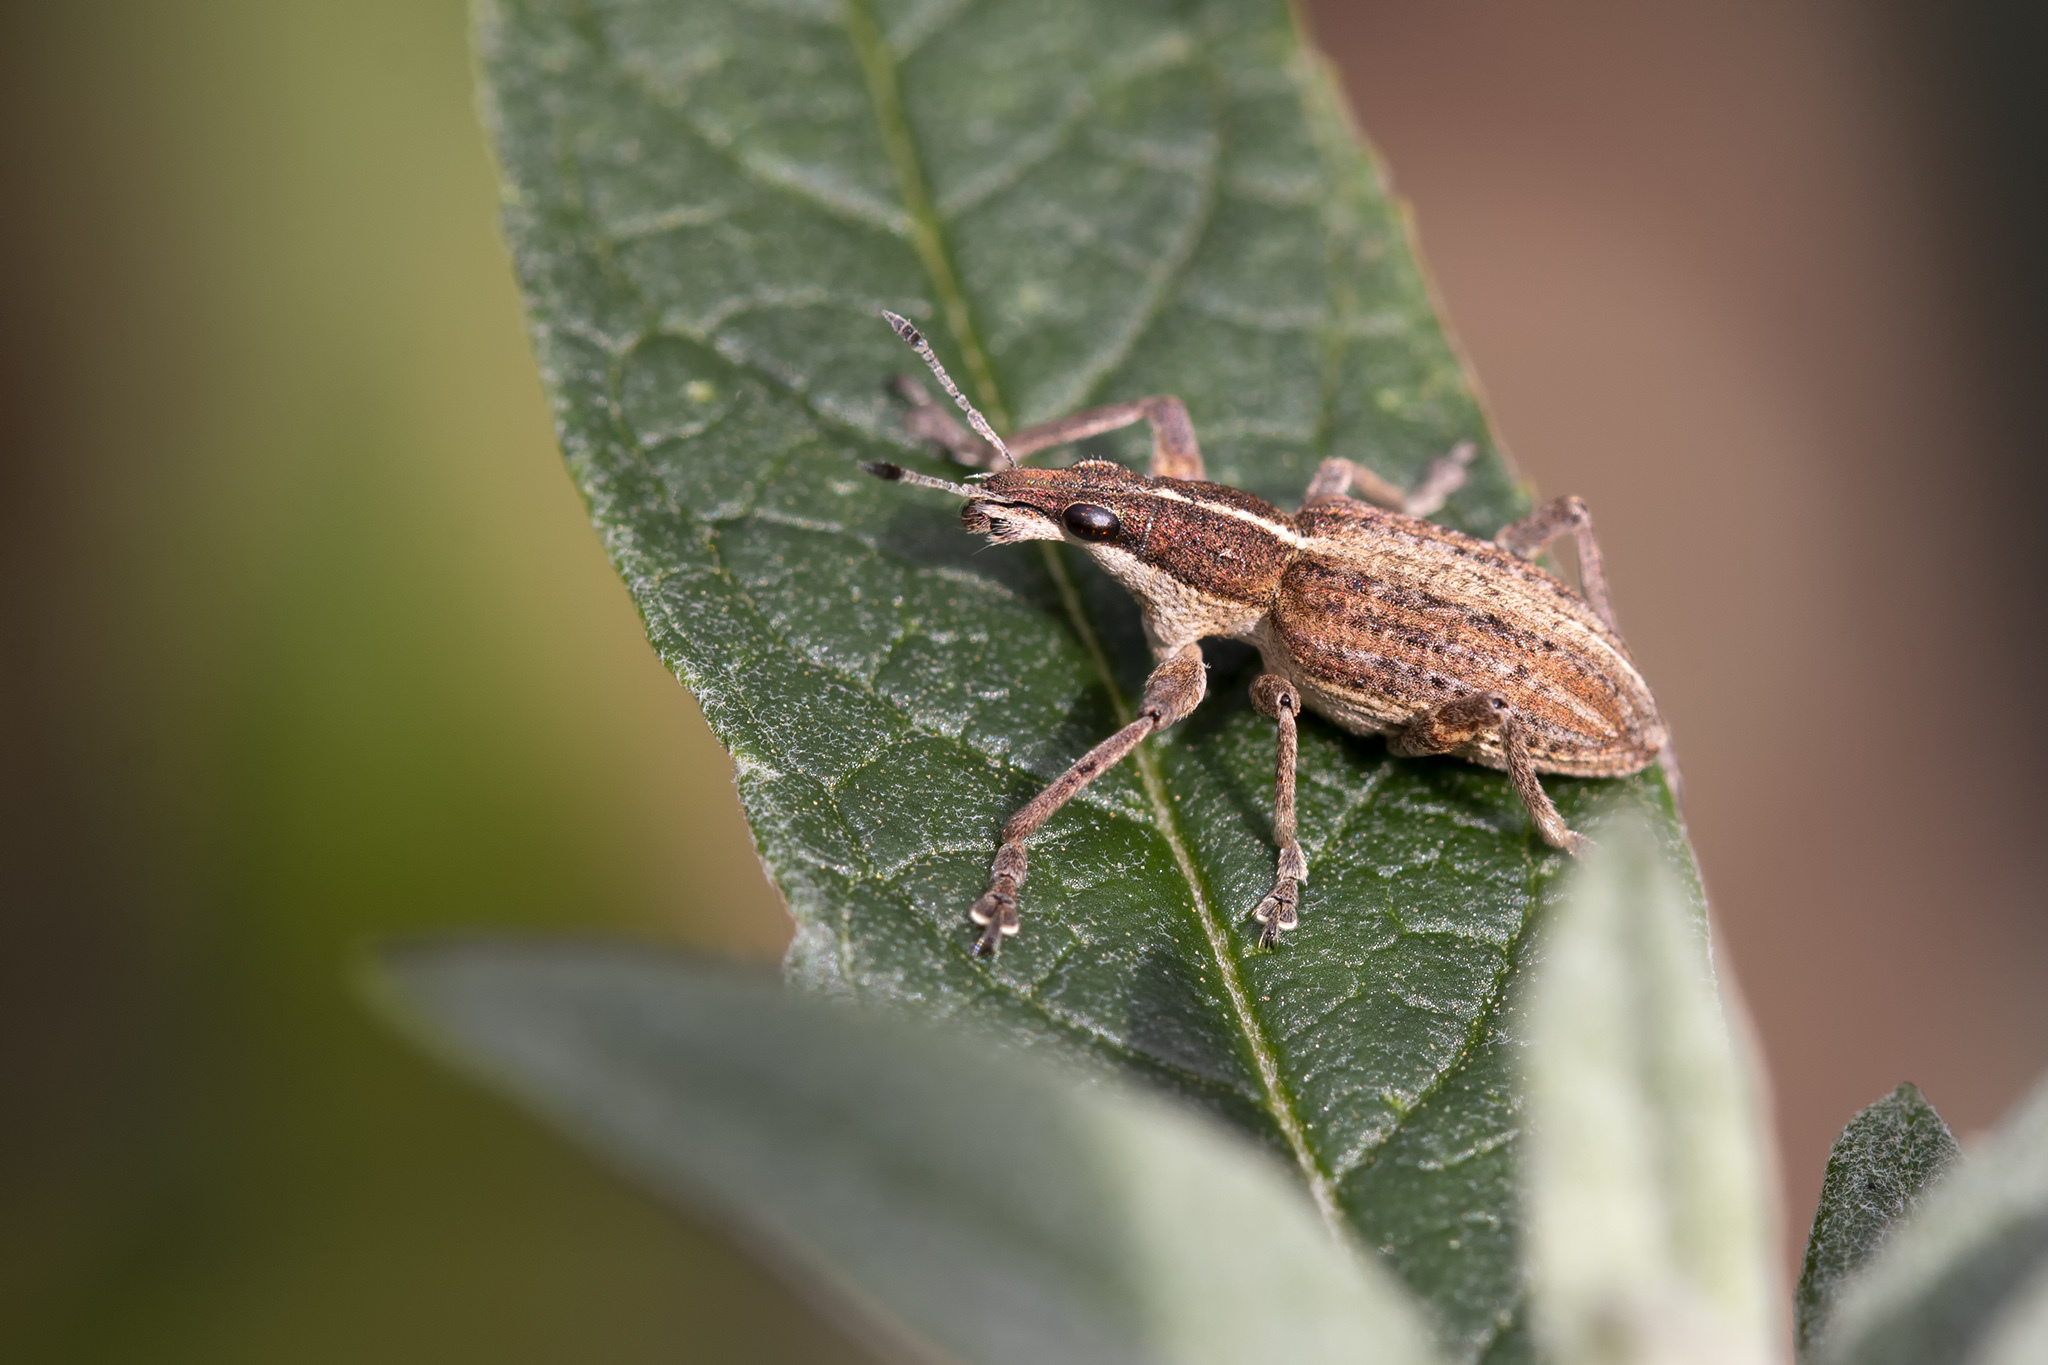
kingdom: Animalia
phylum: Arthropoda
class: Insecta
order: Coleoptera
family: Curculionidae
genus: Charagmus
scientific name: Charagmus gressorius
